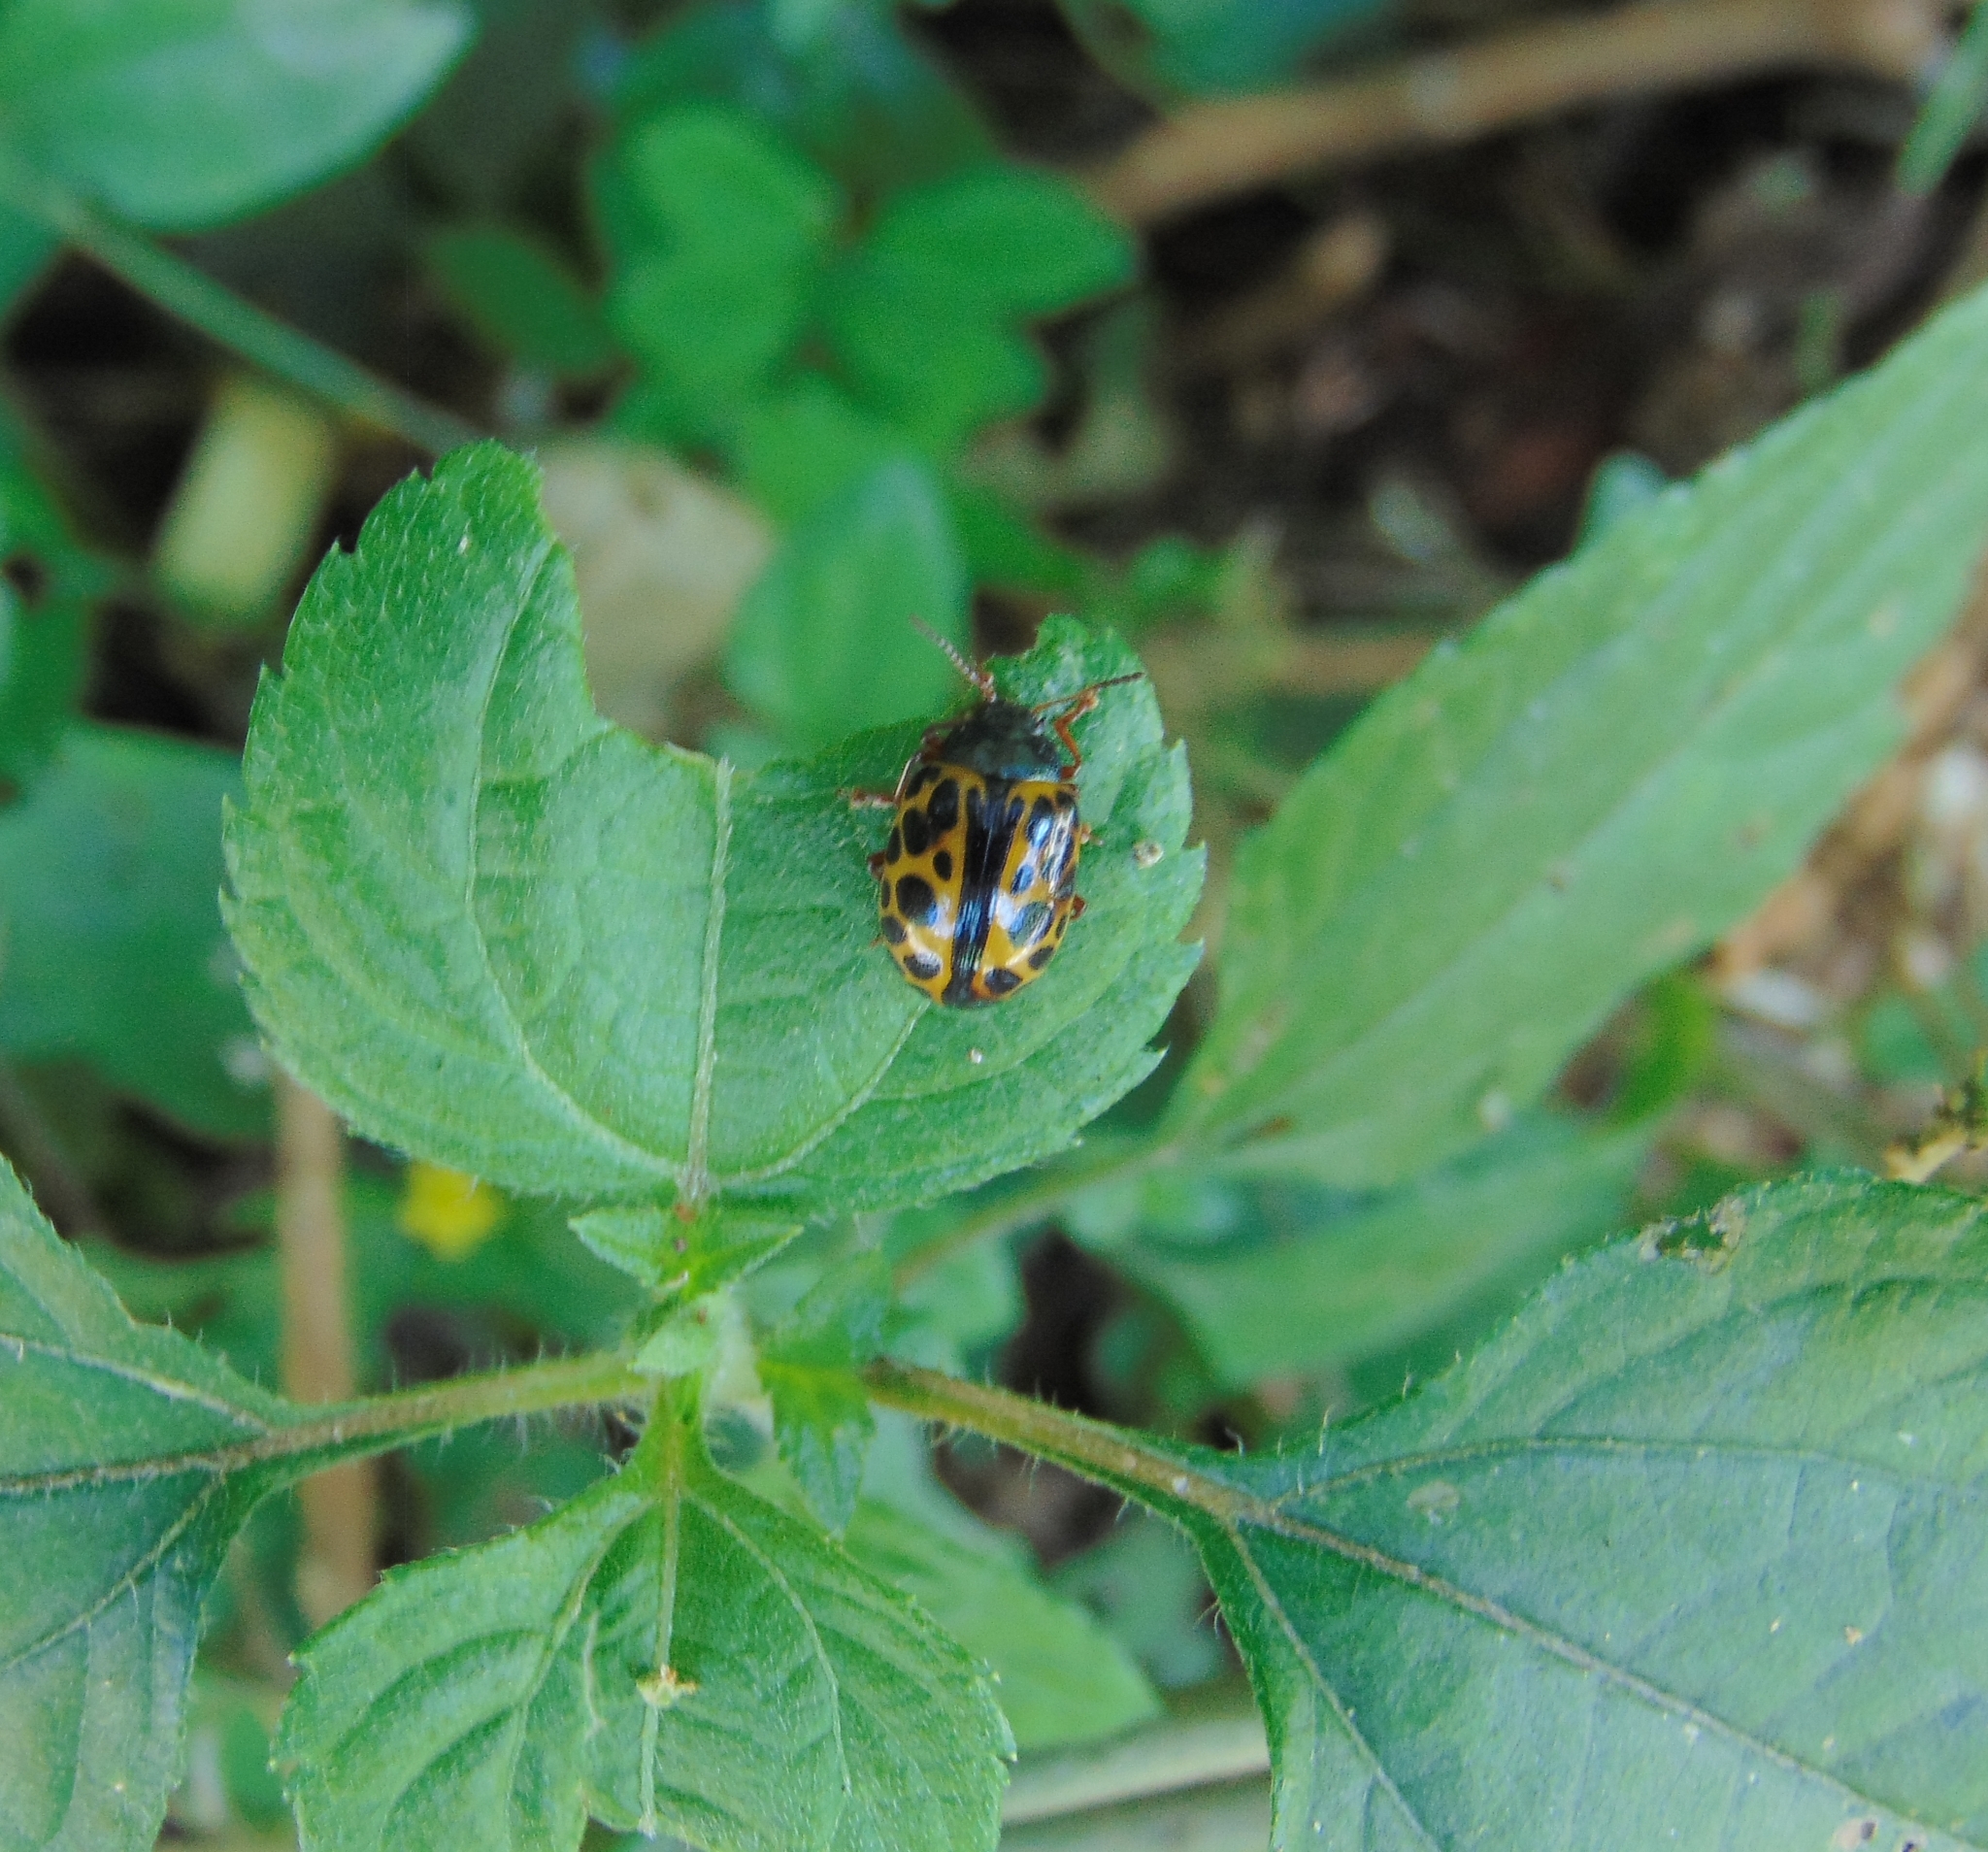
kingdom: Animalia
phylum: Arthropoda
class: Insecta
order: Coleoptera
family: Chrysomelidae
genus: Calligrapha
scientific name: Calligrapha polyspila
